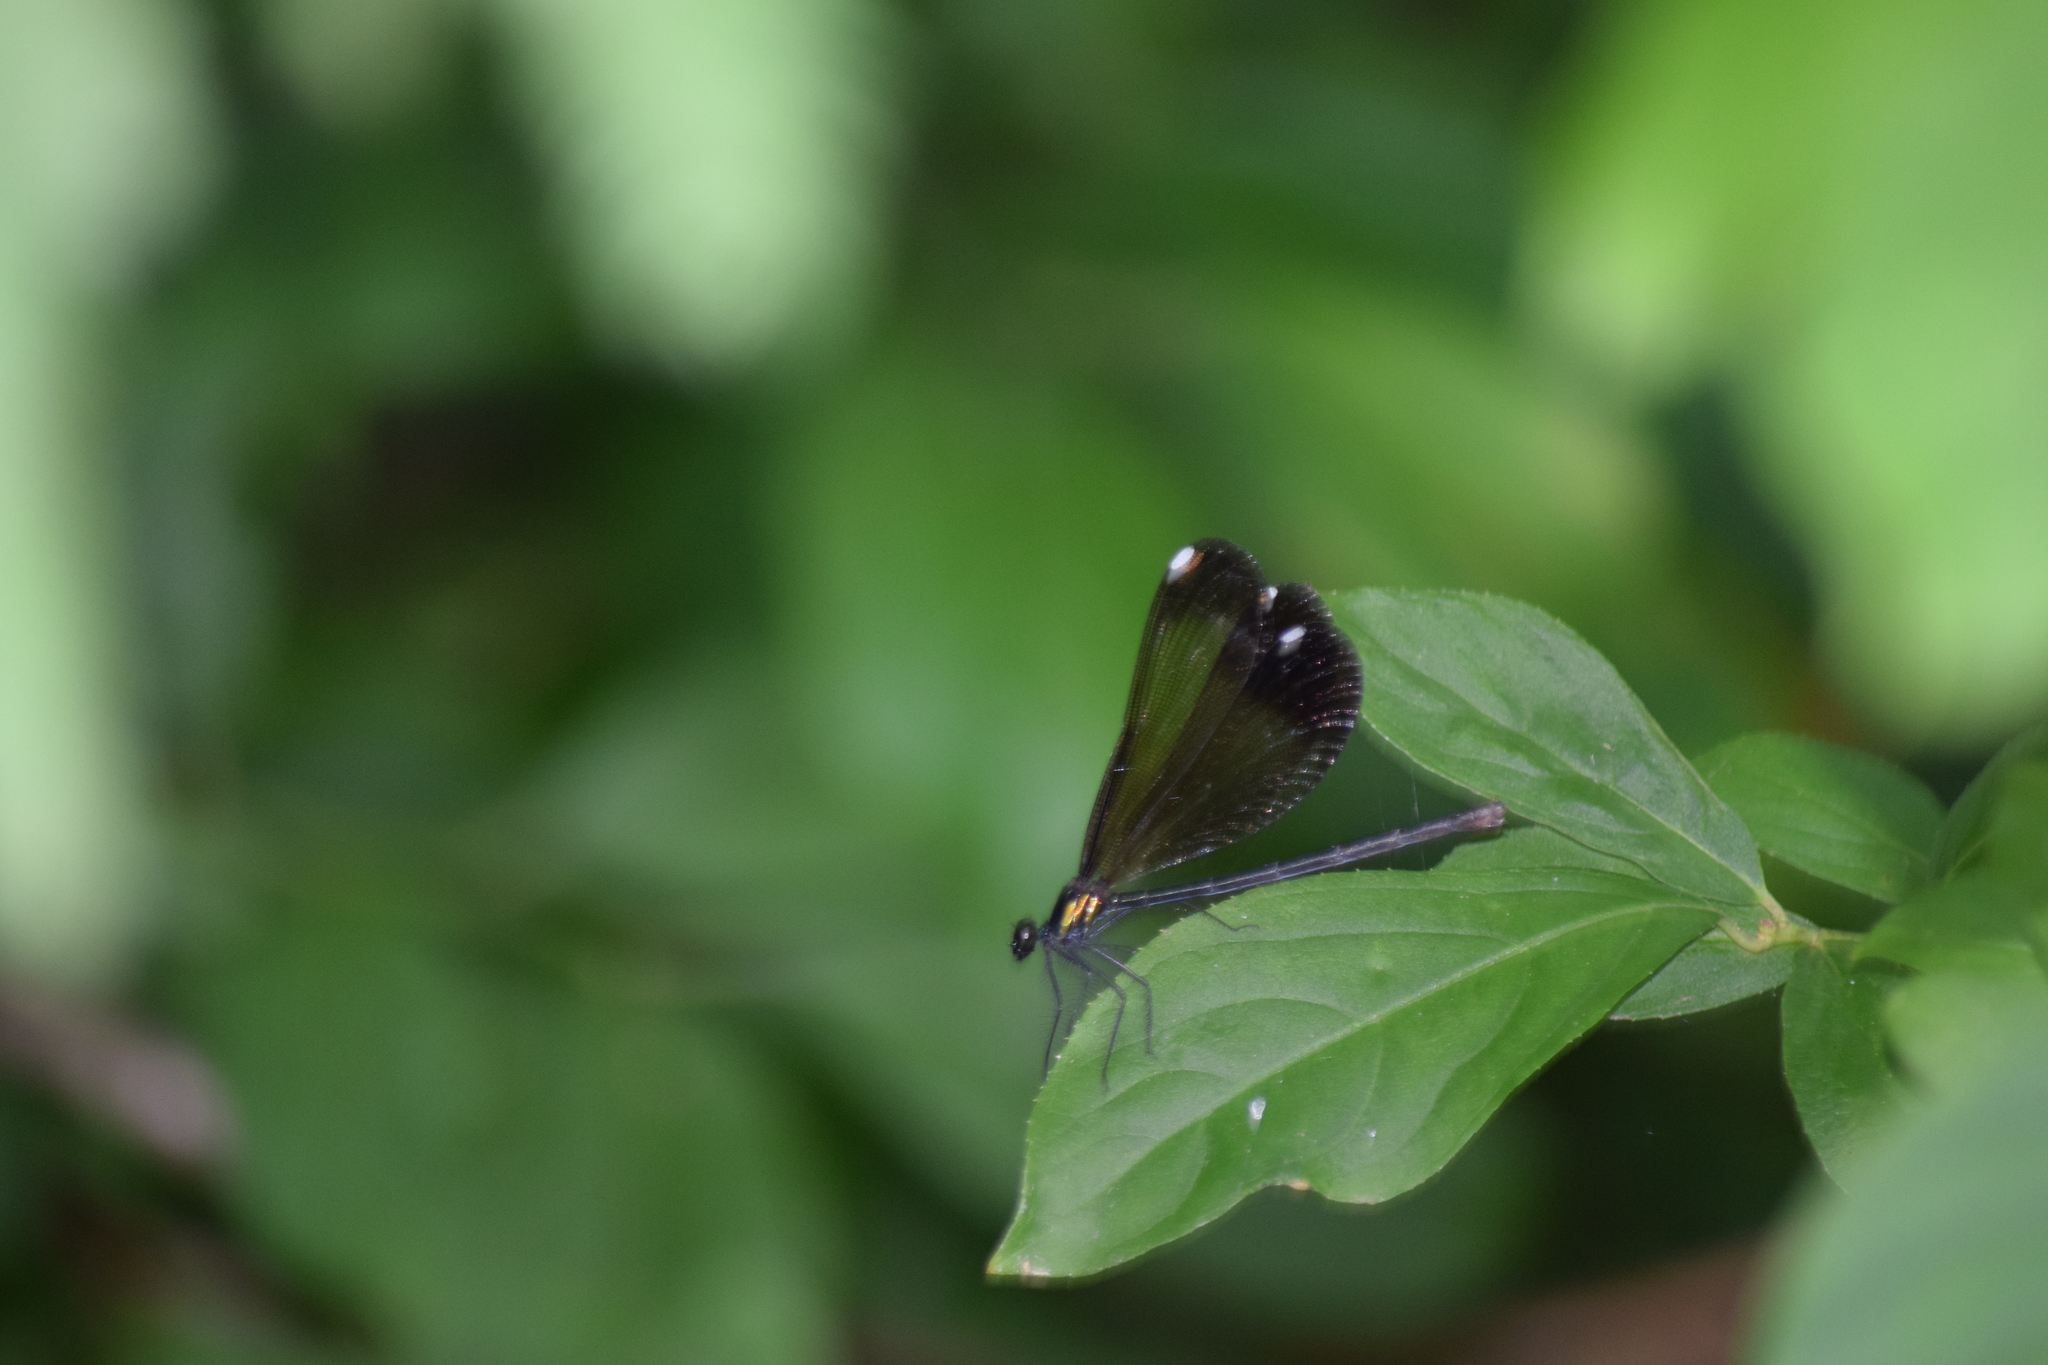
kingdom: Animalia
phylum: Arthropoda
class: Insecta
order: Odonata
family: Calopterygidae
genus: Calopteryx
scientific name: Calopteryx maculata
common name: Ebony jewelwing
